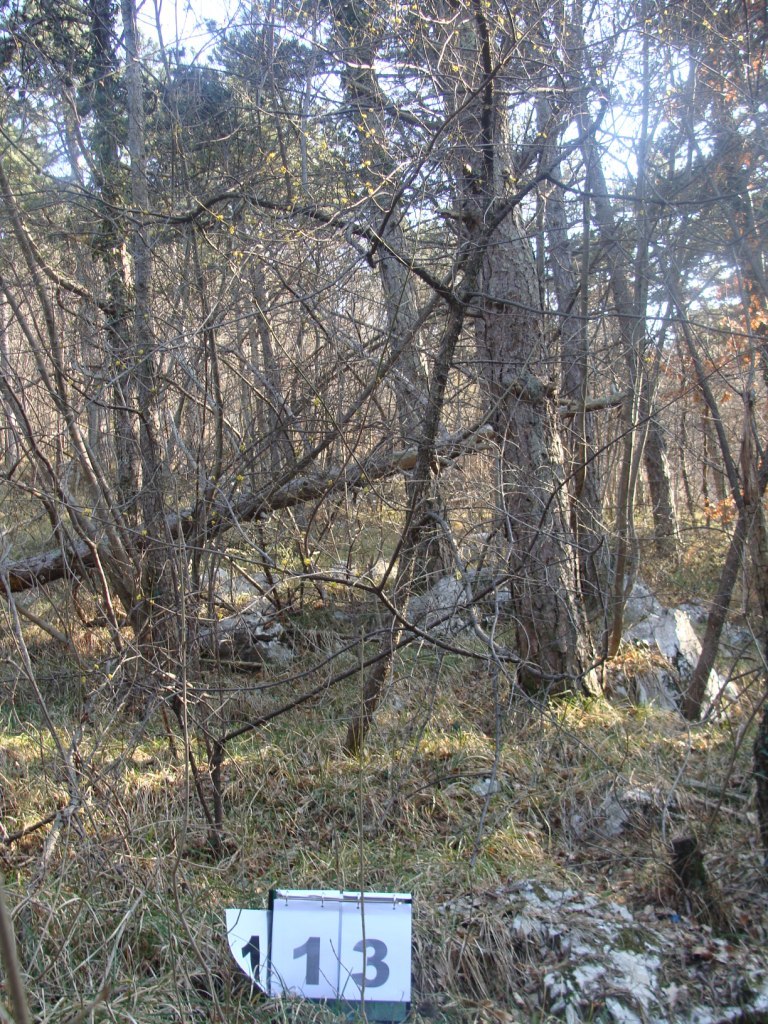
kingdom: Plantae
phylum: Tracheophyta
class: Magnoliopsida
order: Cornales
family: Cornaceae
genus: Cornus
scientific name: Cornus mas
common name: Cornelian-cherry
